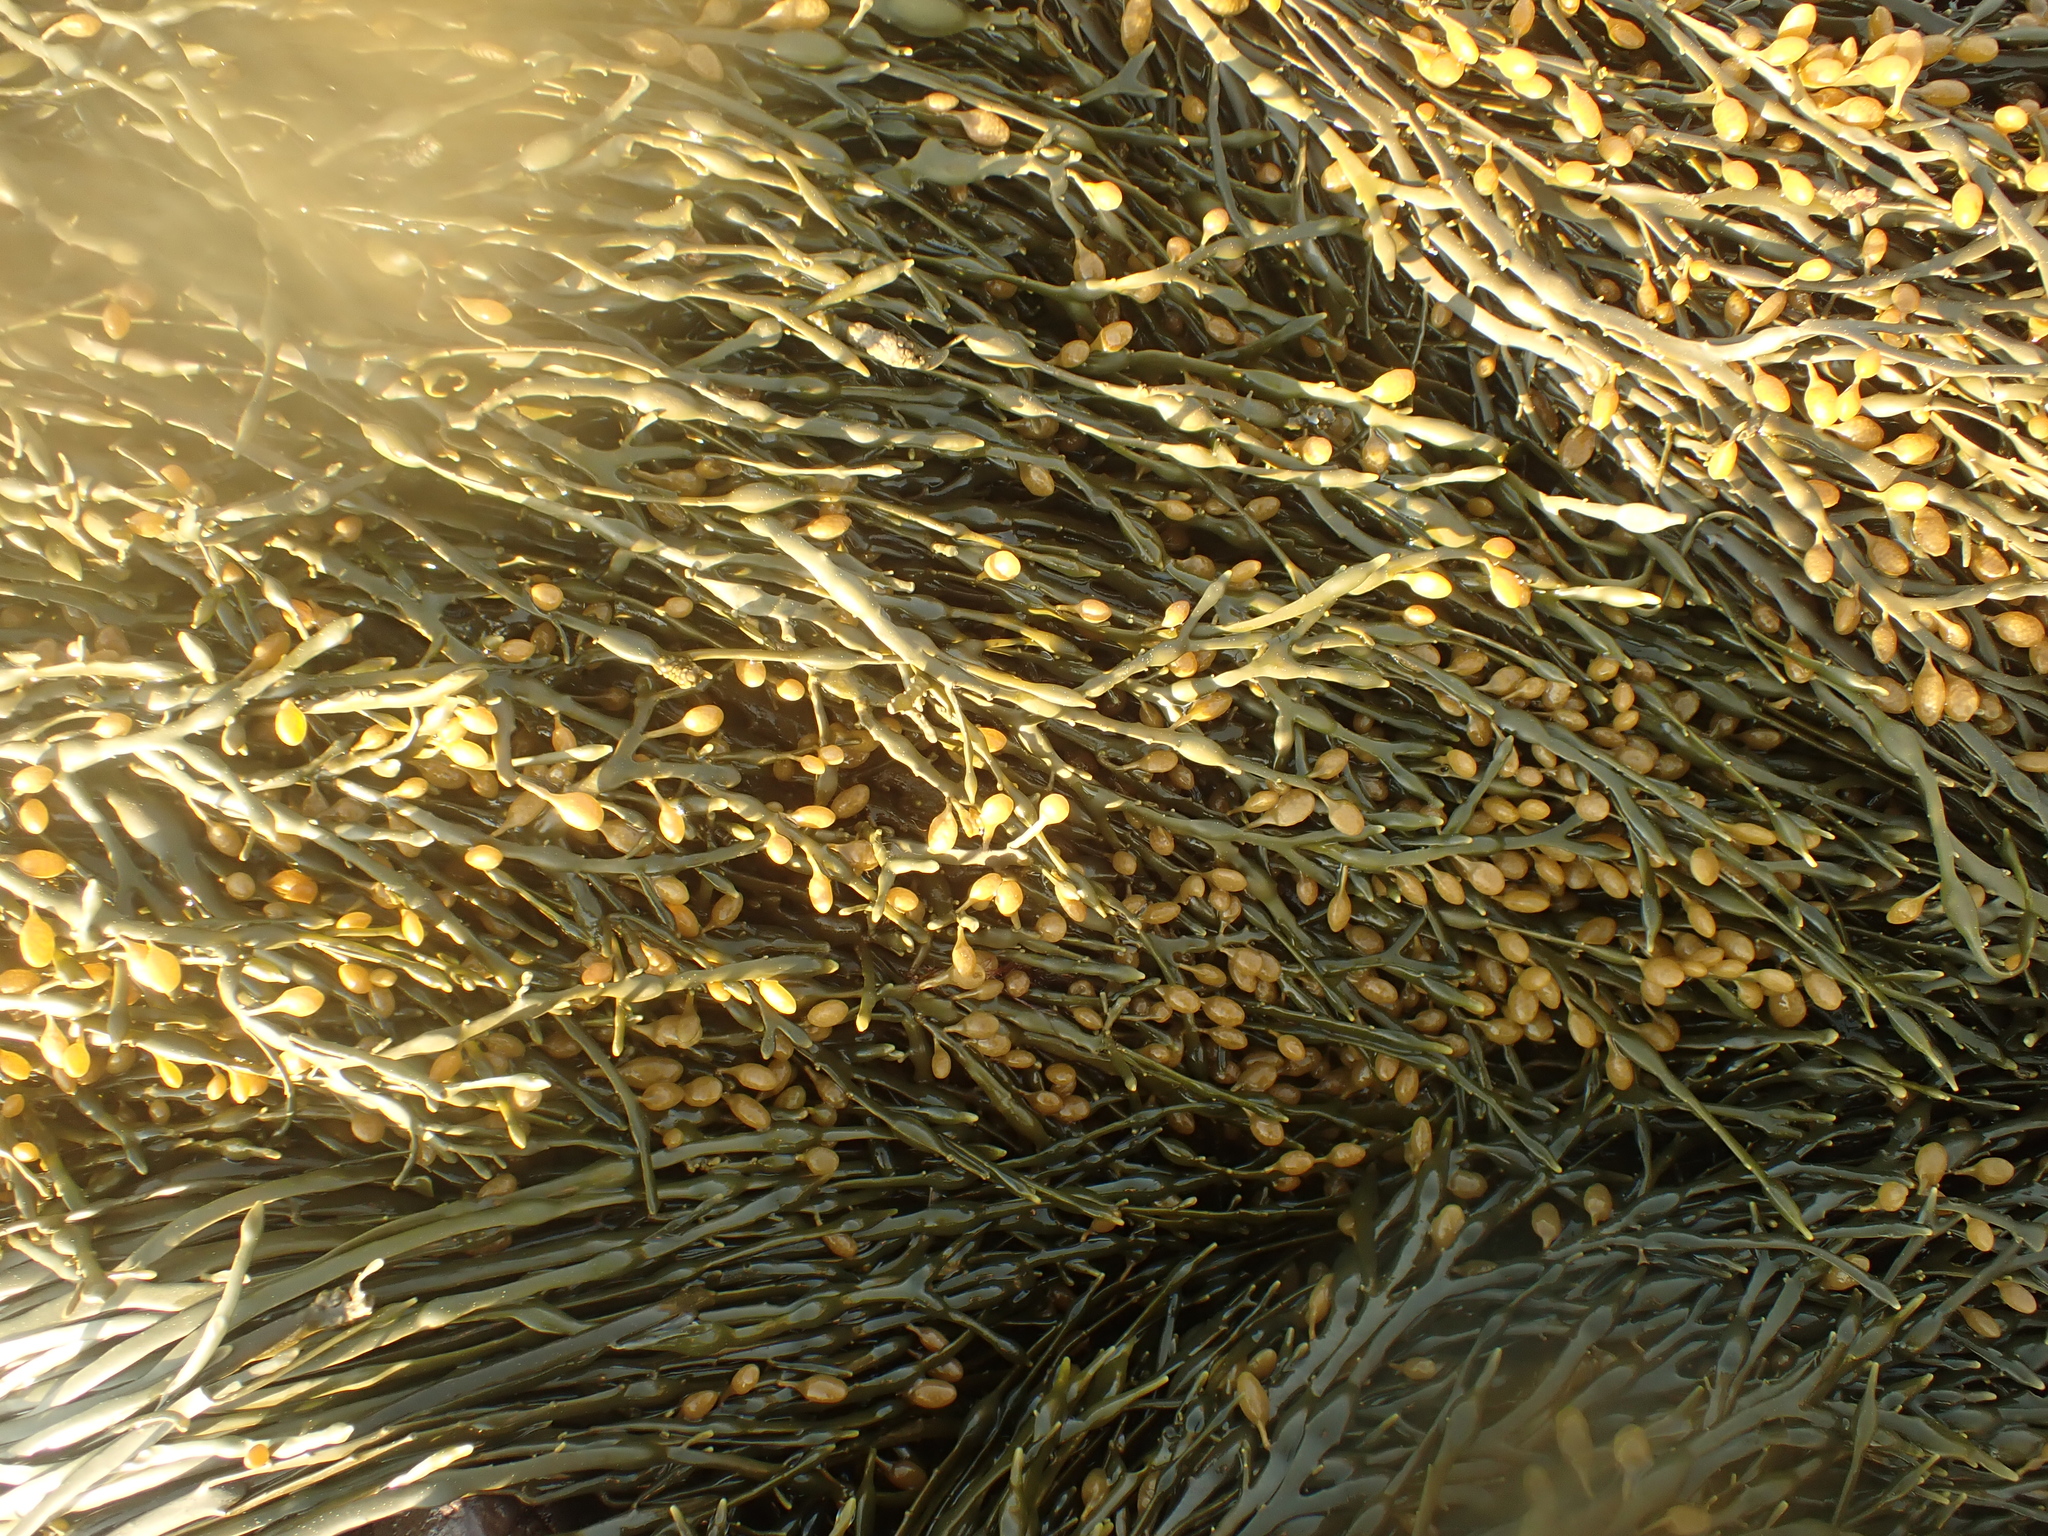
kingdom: Chromista
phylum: Ochrophyta
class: Phaeophyceae
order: Fucales
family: Fucaceae
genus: Ascophyllum
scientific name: Ascophyllum nodosum
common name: Knotted wrack
